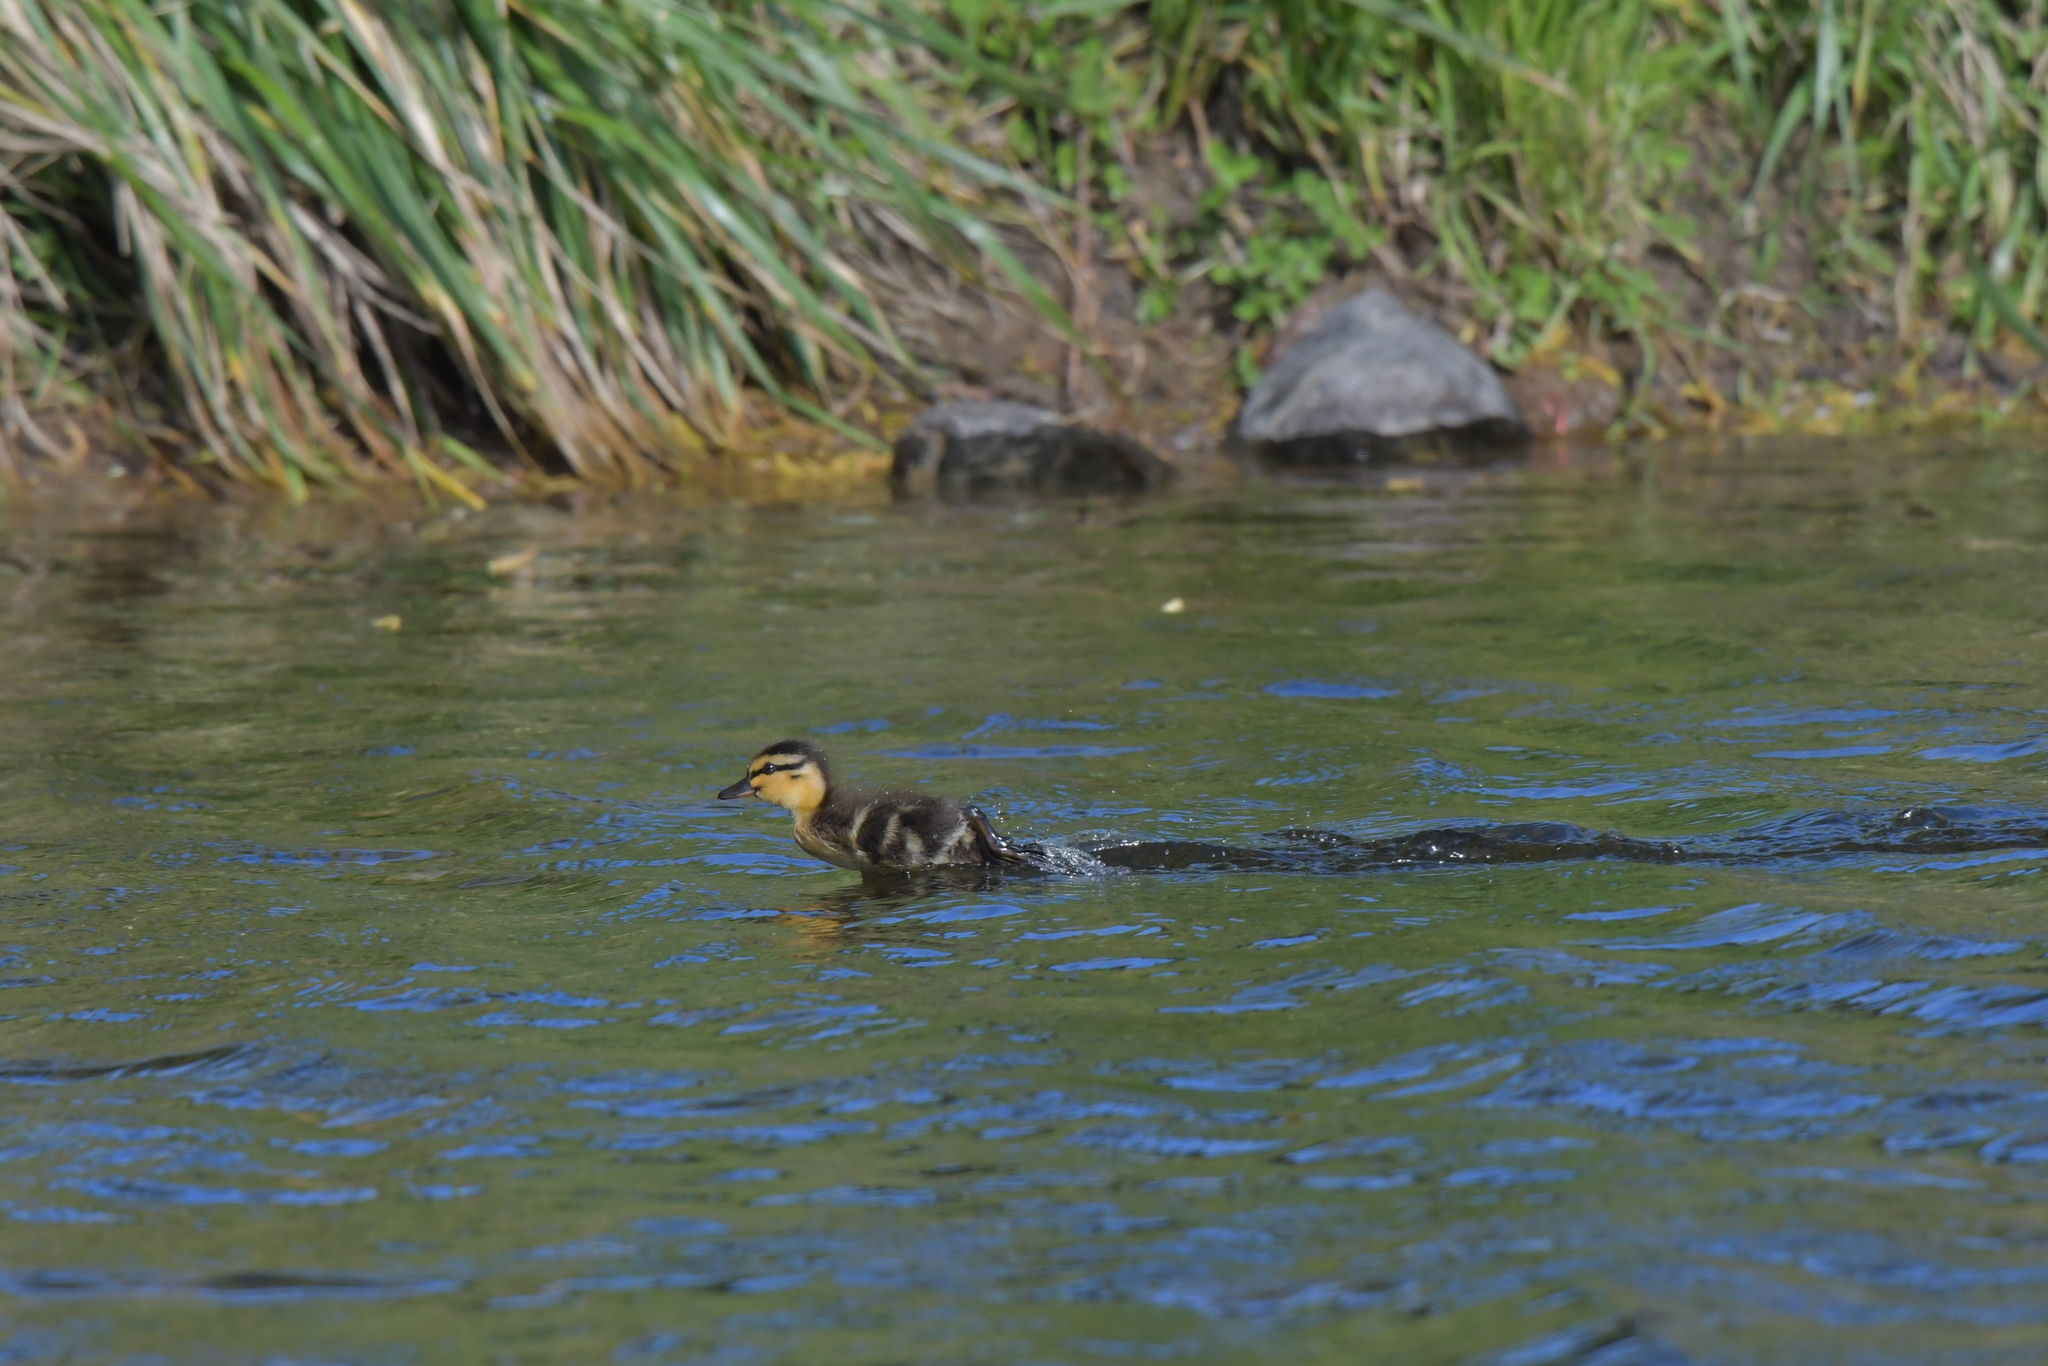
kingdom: Animalia
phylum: Chordata
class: Aves
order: Anseriformes
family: Anatidae
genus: Anas
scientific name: Anas platyrhynchos
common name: Mallard
